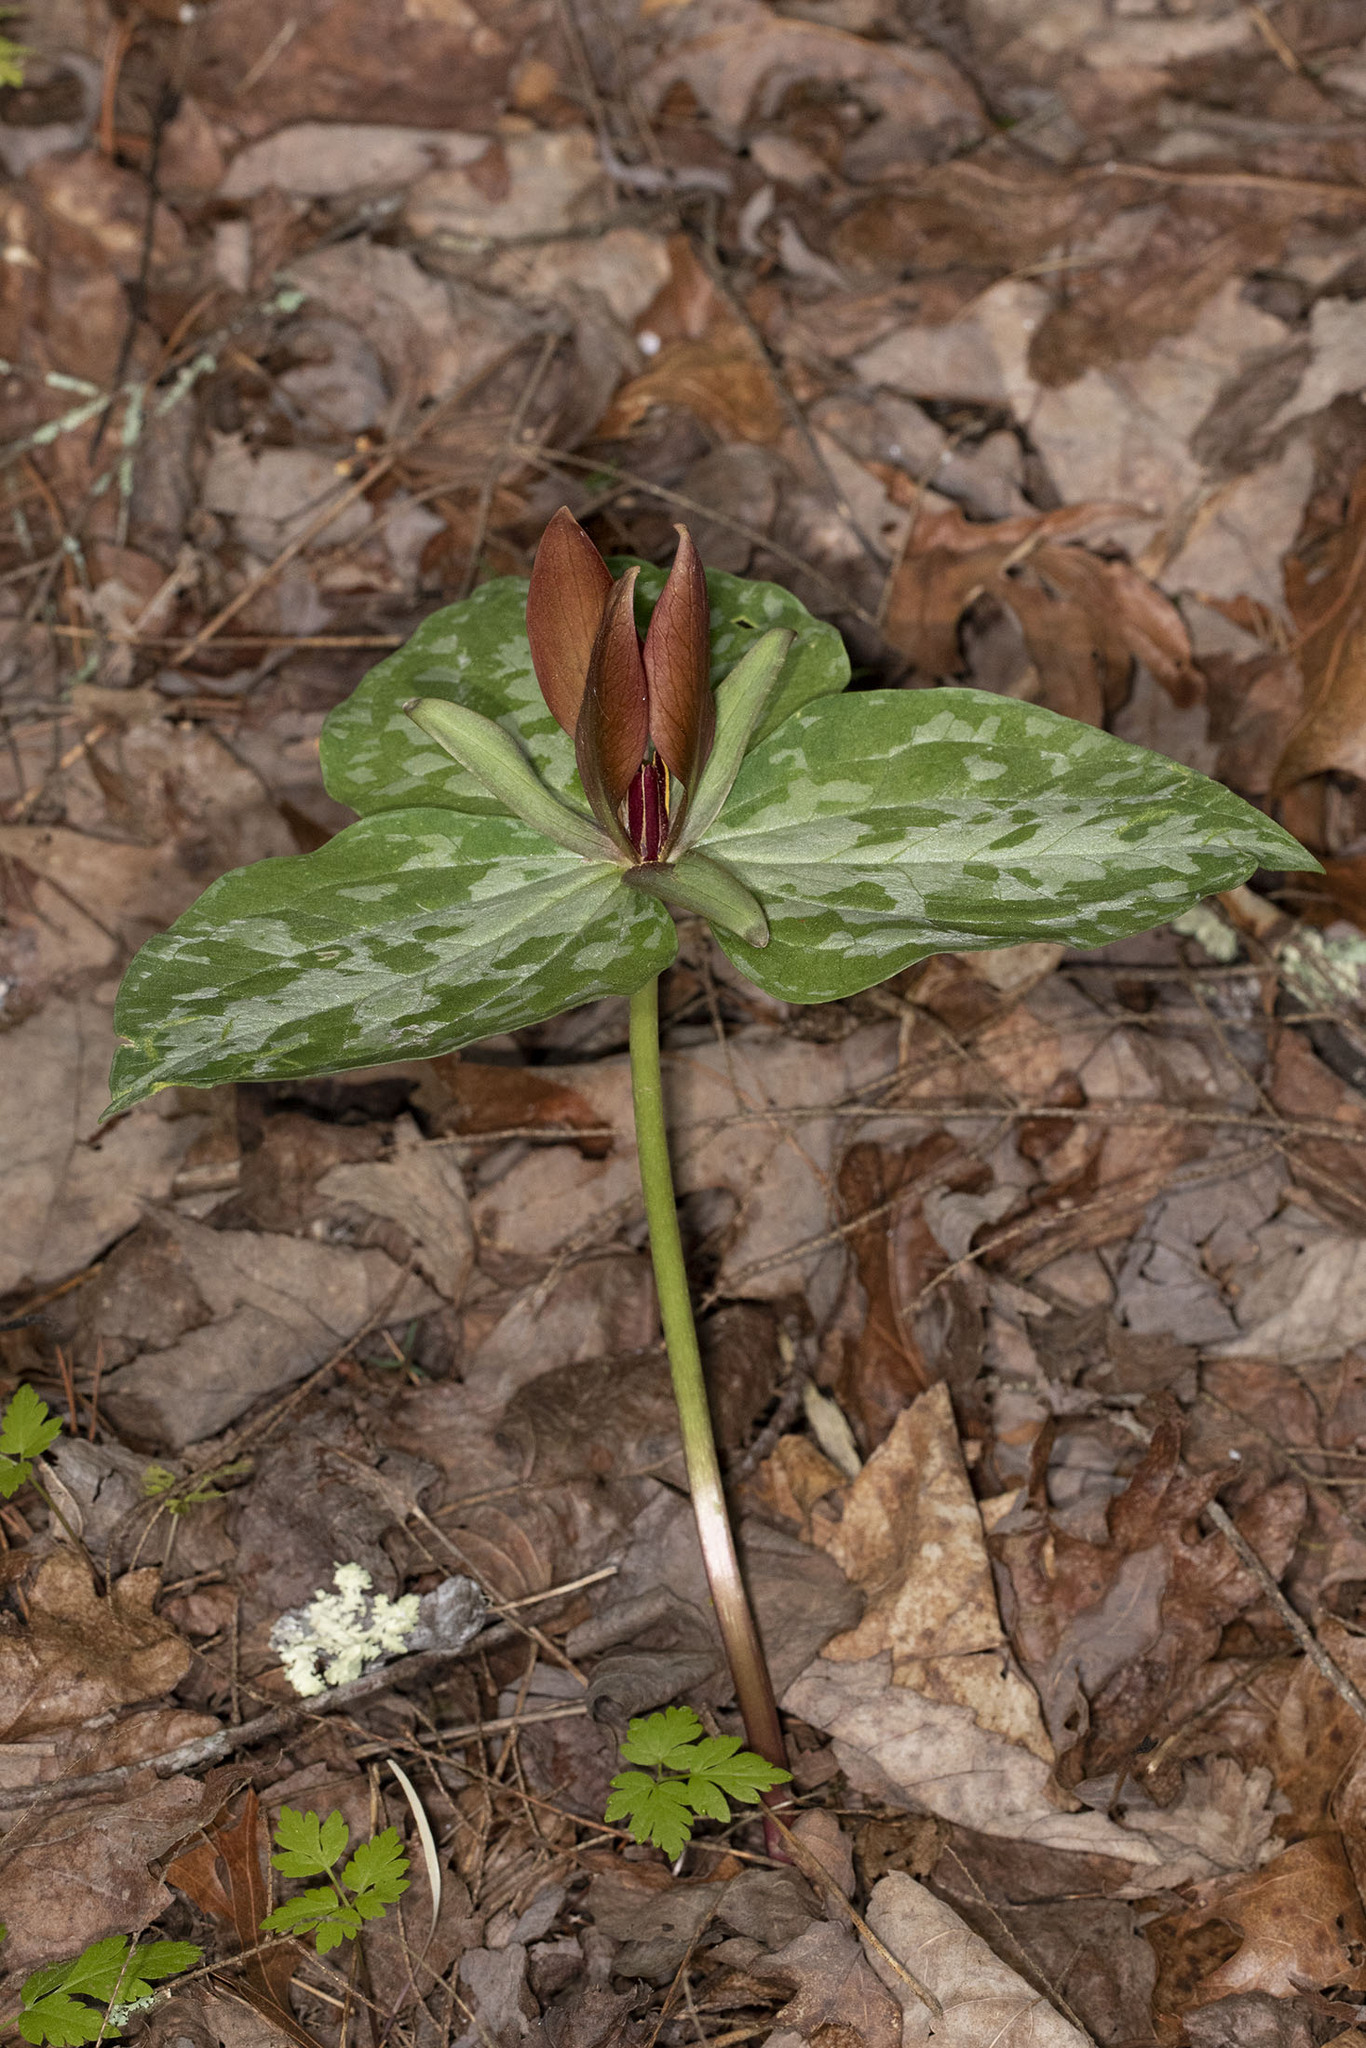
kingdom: Plantae
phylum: Tracheophyta
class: Liliopsida
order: Liliales
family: Melanthiaceae
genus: Trillium
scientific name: Trillium cuneatum
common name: Cuneate trillium
